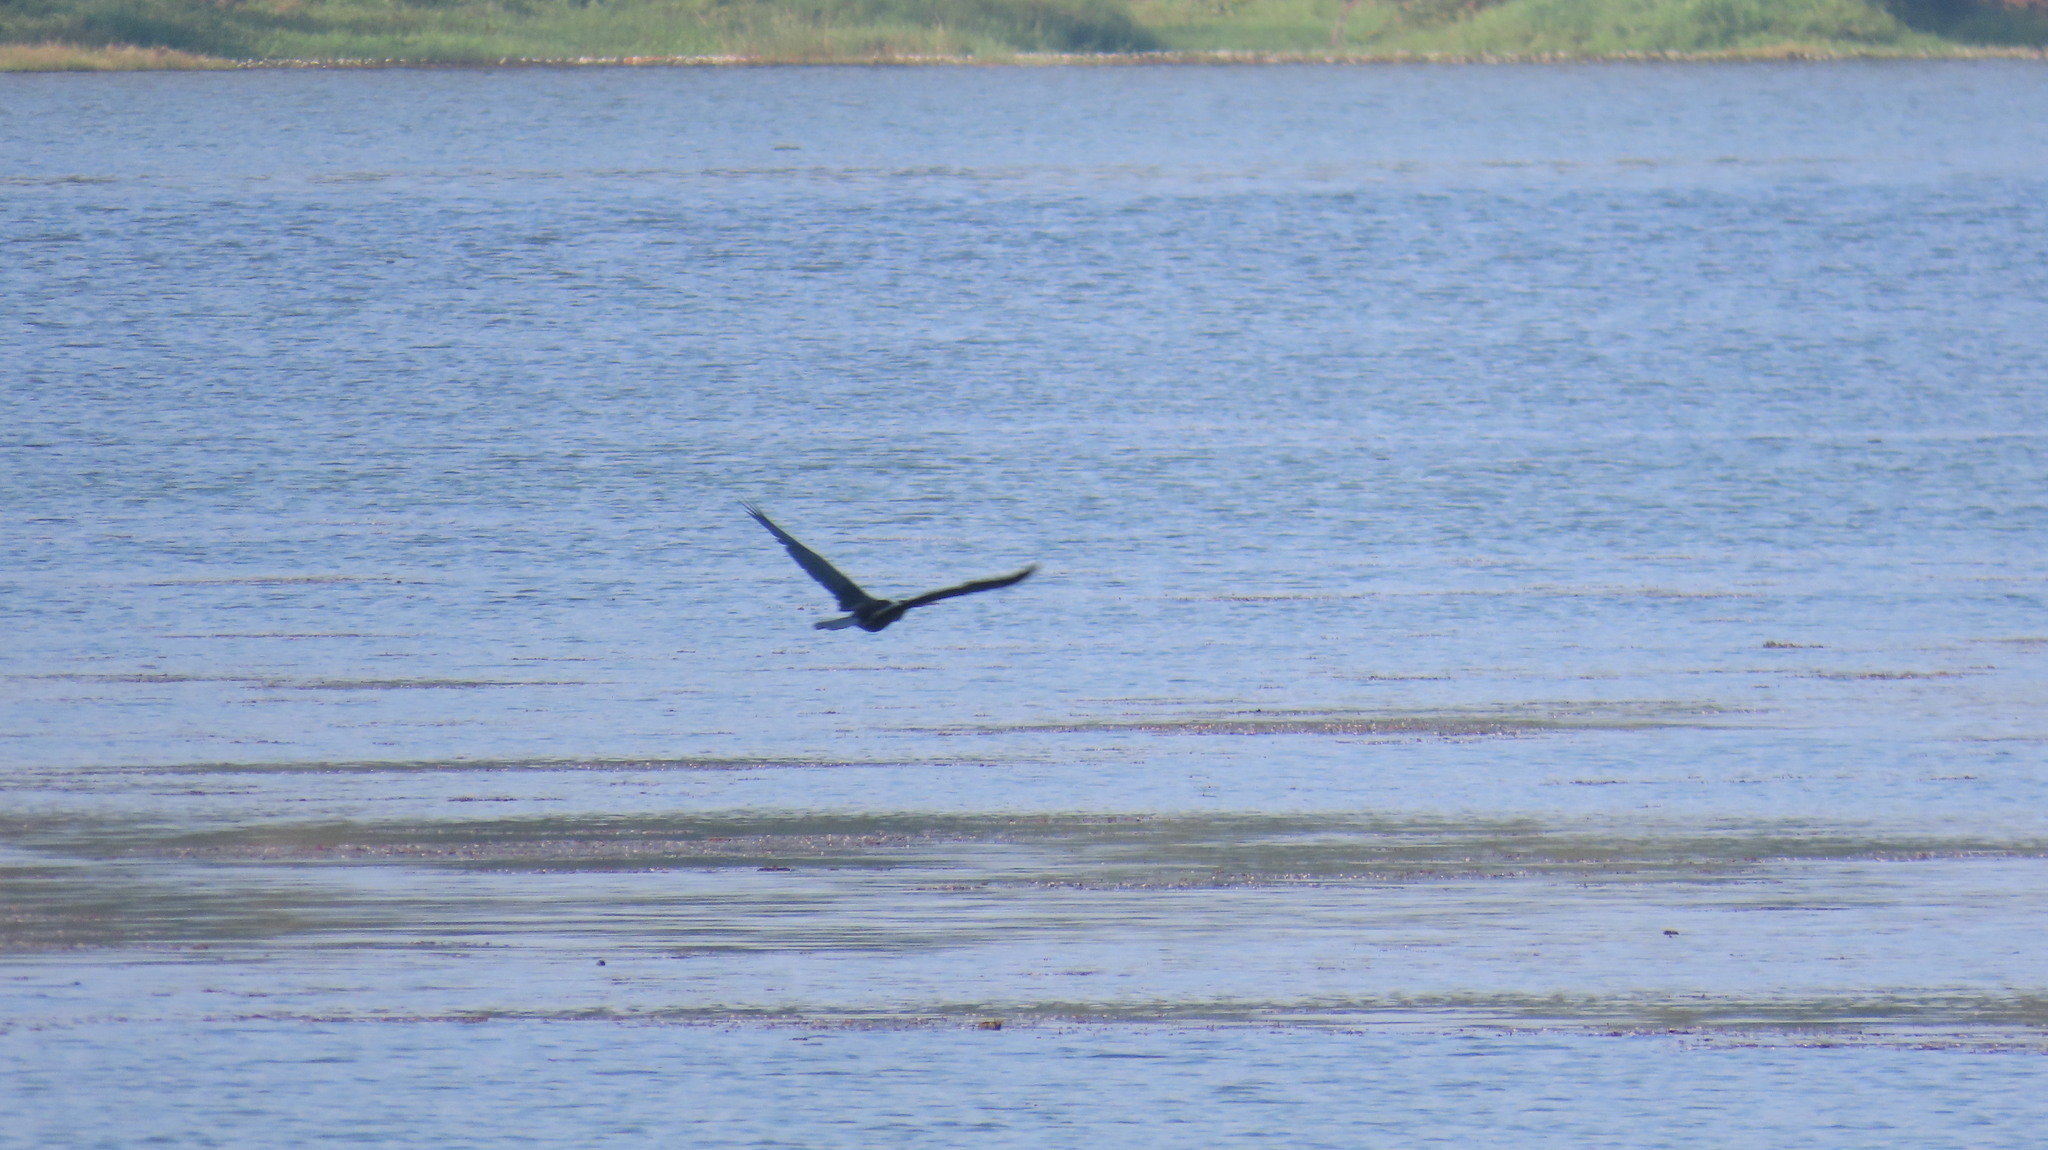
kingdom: Animalia
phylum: Chordata
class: Aves
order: Suliformes
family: Anhingidae
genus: Anhinga
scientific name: Anhinga melanogaster
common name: Oriental darter
